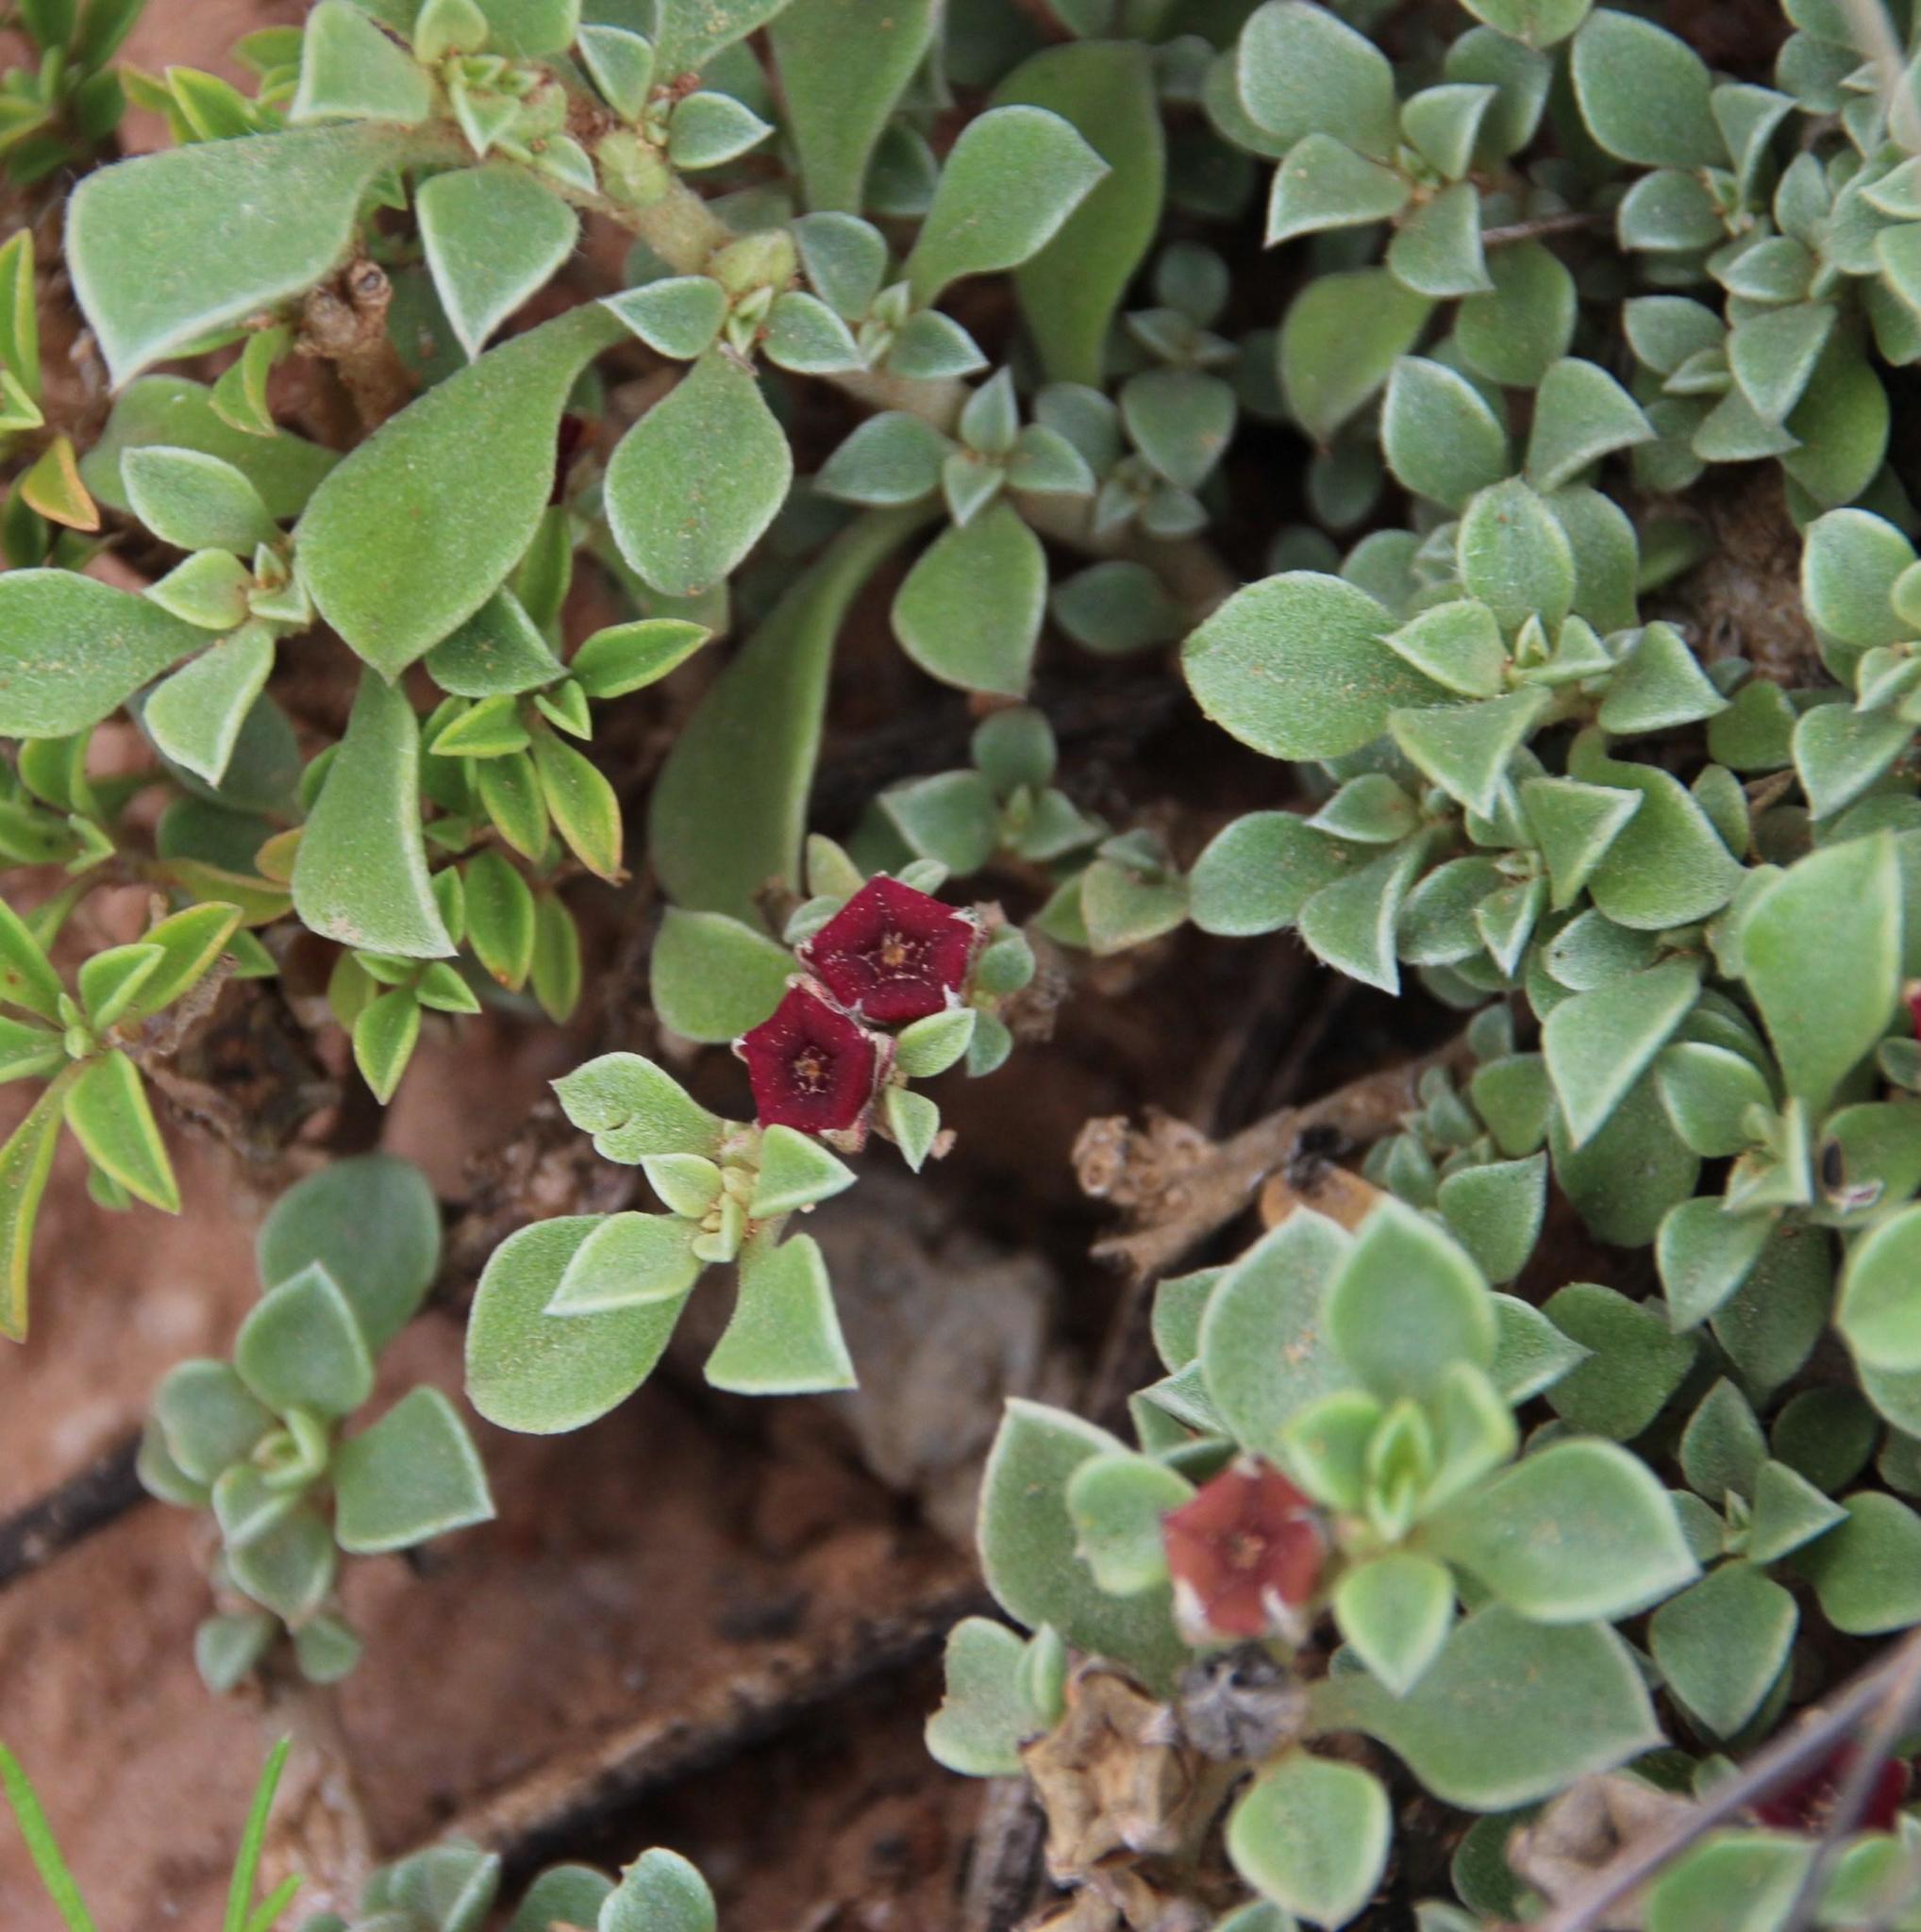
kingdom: Plantae
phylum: Tracheophyta
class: Magnoliopsida
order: Caryophyllales
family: Aizoaceae
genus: Aizoon
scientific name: Aizoon rigidum
